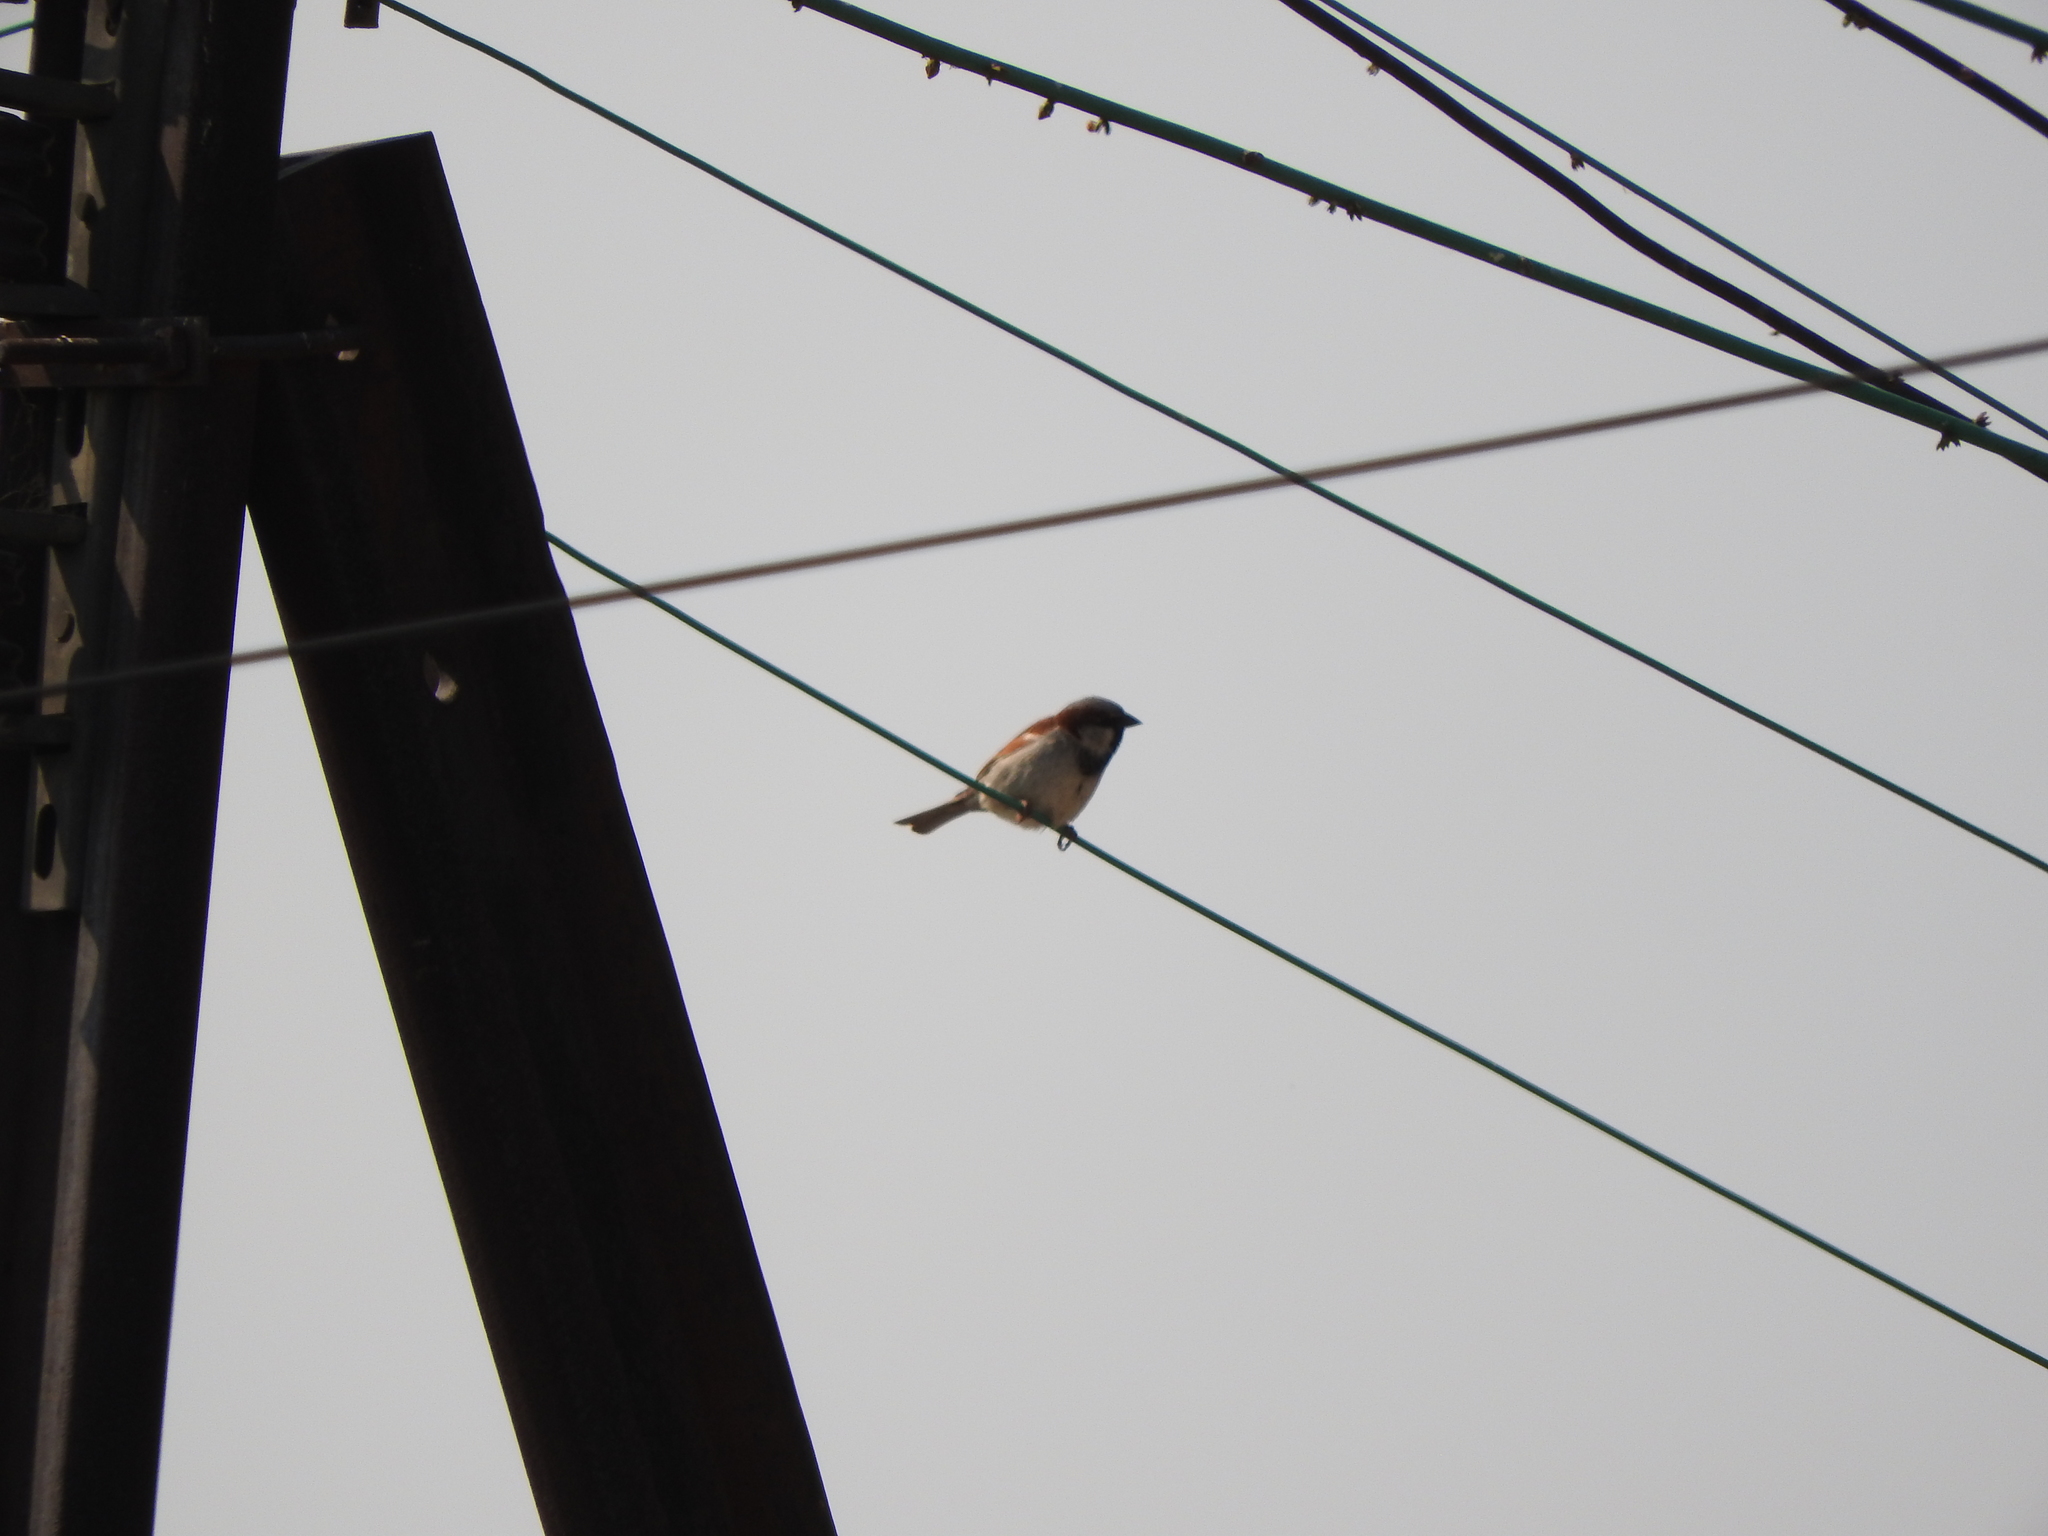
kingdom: Animalia
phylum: Chordata
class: Aves
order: Passeriformes
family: Passeridae
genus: Passer
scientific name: Passer domesticus
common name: House sparrow
